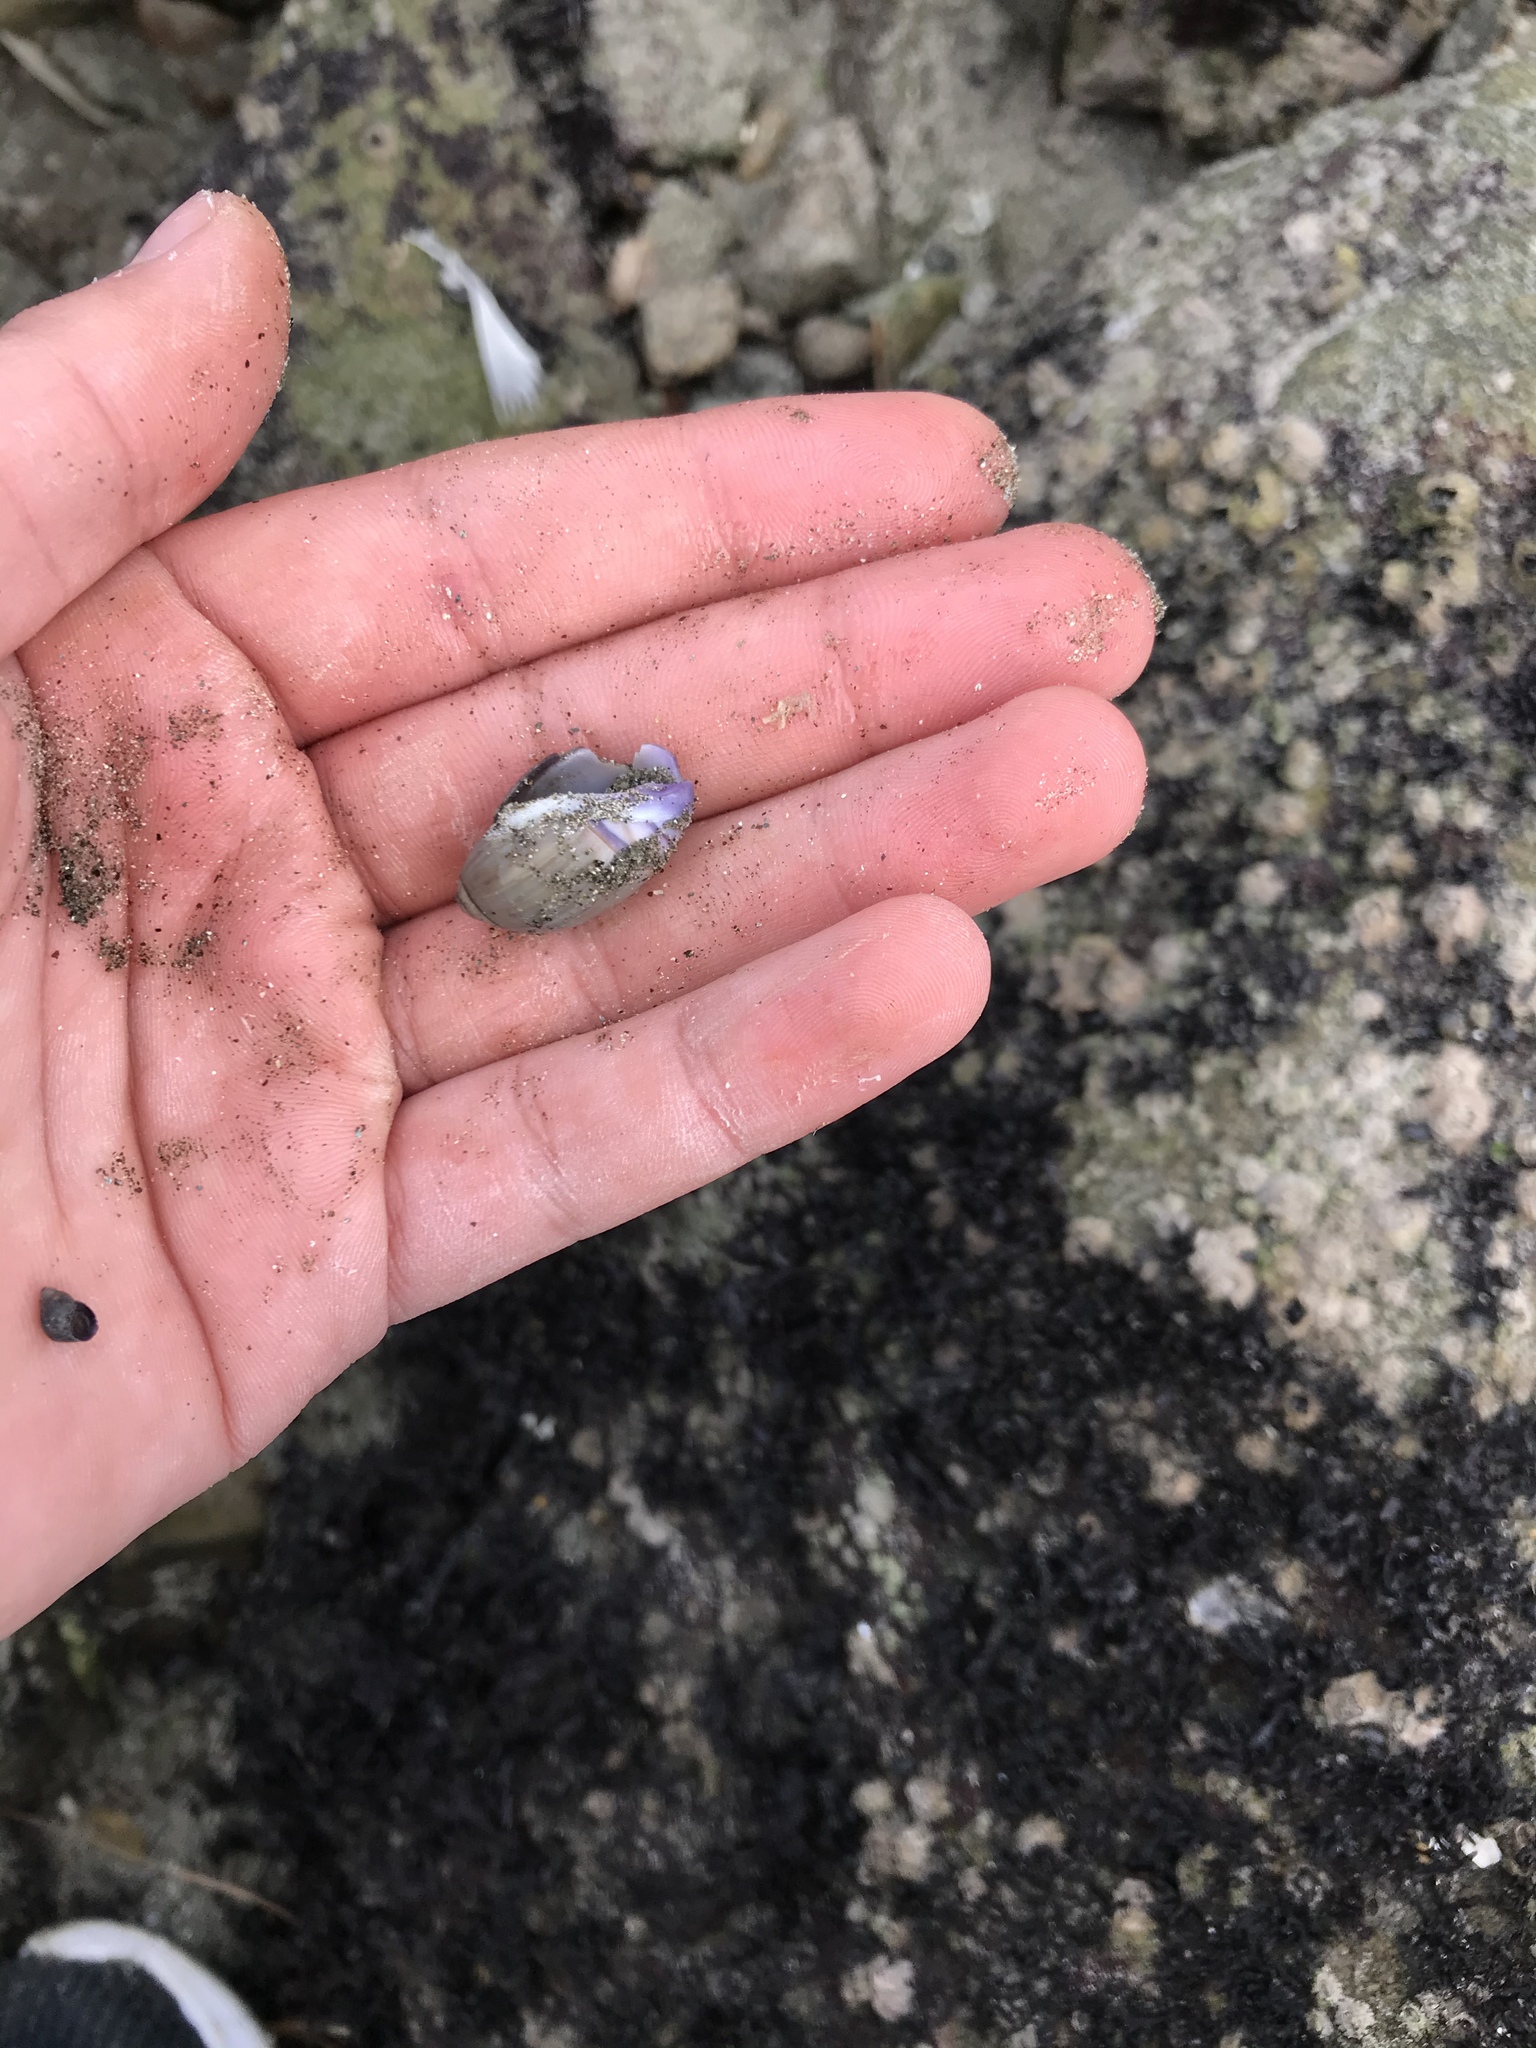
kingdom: Animalia
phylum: Mollusca
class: Gastropoda
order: Neogastropoda
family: Olividae
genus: Callianax
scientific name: Callianax biplicata
